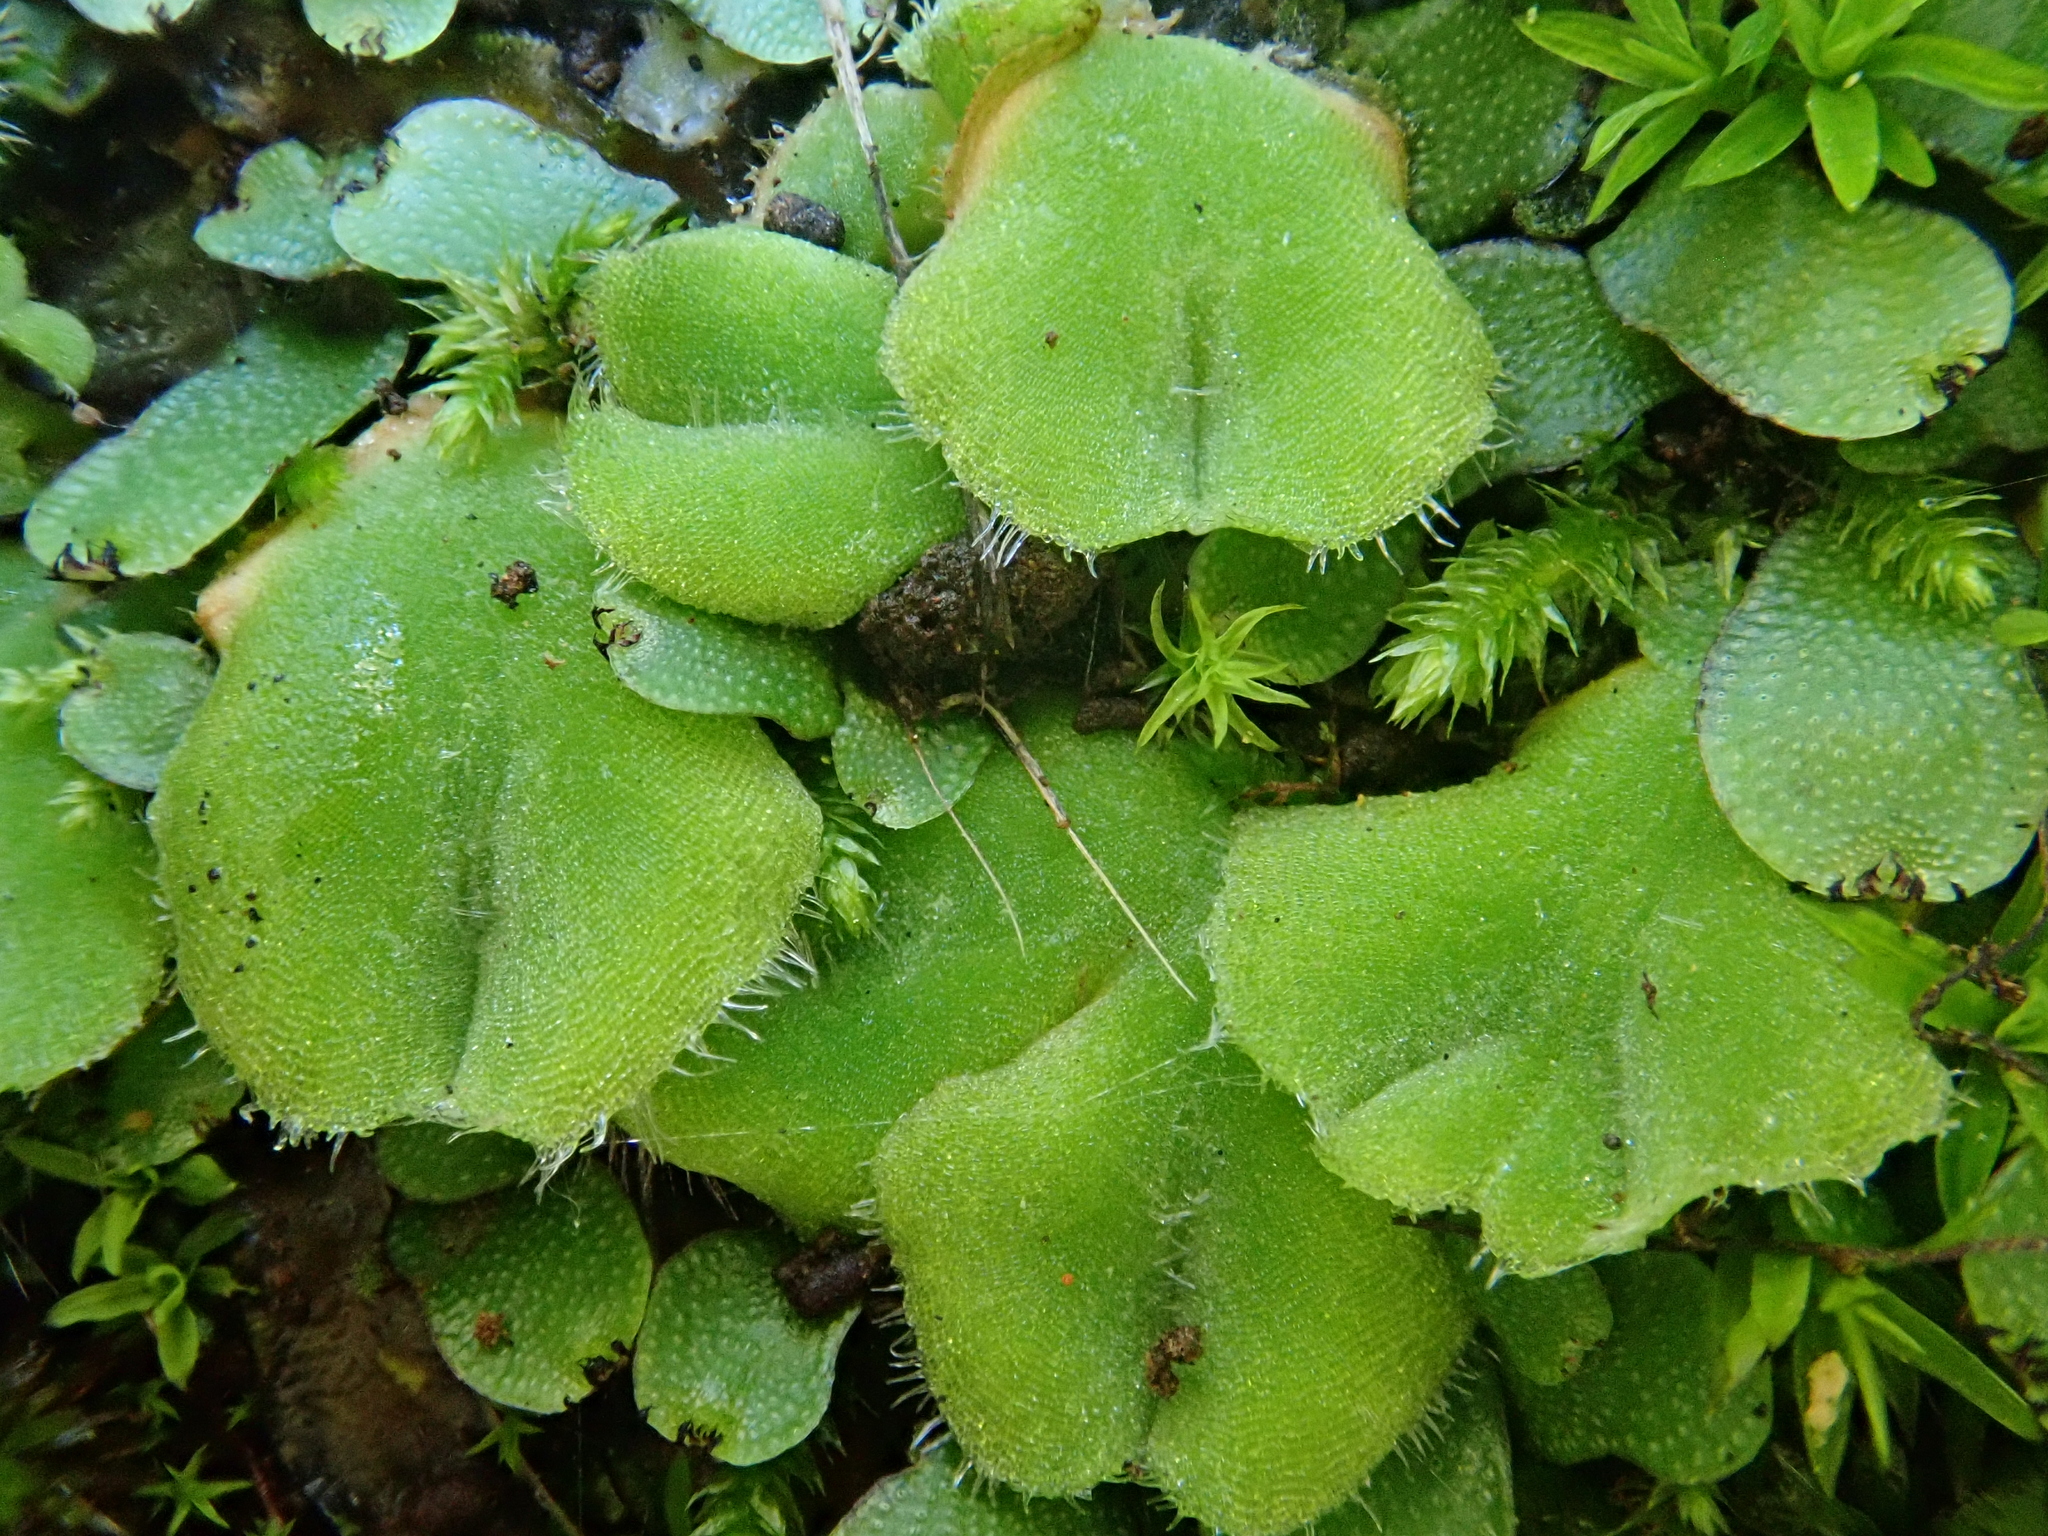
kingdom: Plantae
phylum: Marchantiophyta
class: Marchantiopsida
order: Marchantiales
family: Ricciaceae
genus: Riccia
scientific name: Riccia gougetiana
